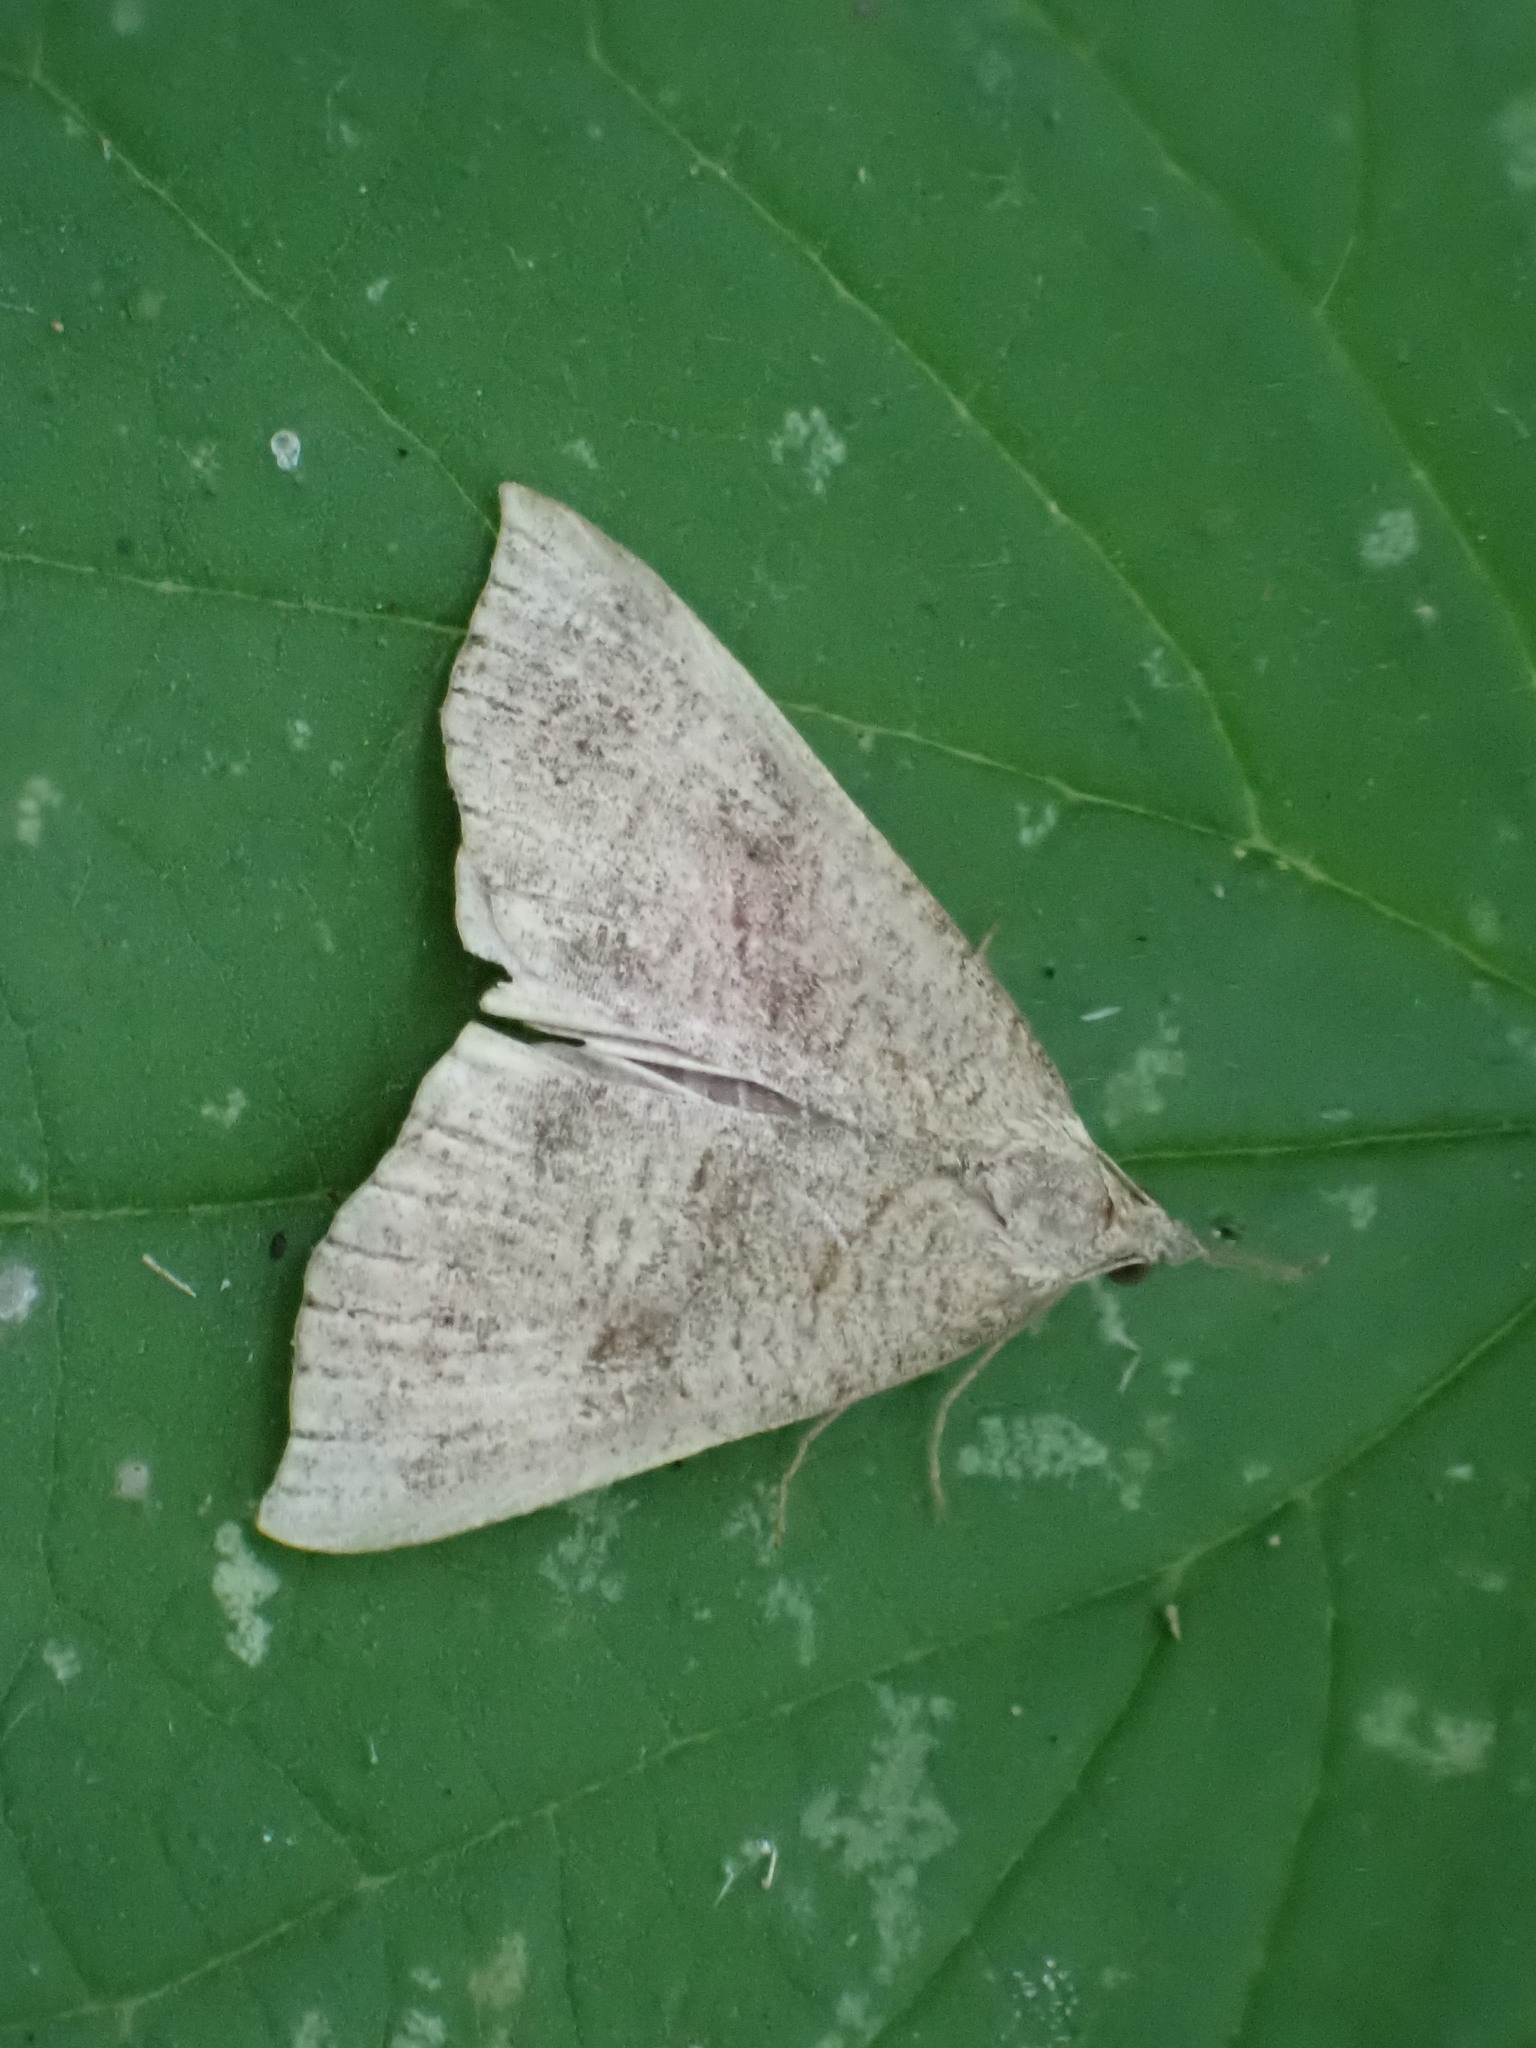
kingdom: Animalia
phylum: Arthropoda
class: Insecta
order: Lepidoptera
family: Erebidae
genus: Hypena
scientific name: Hypena proboscidalis
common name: Snout
